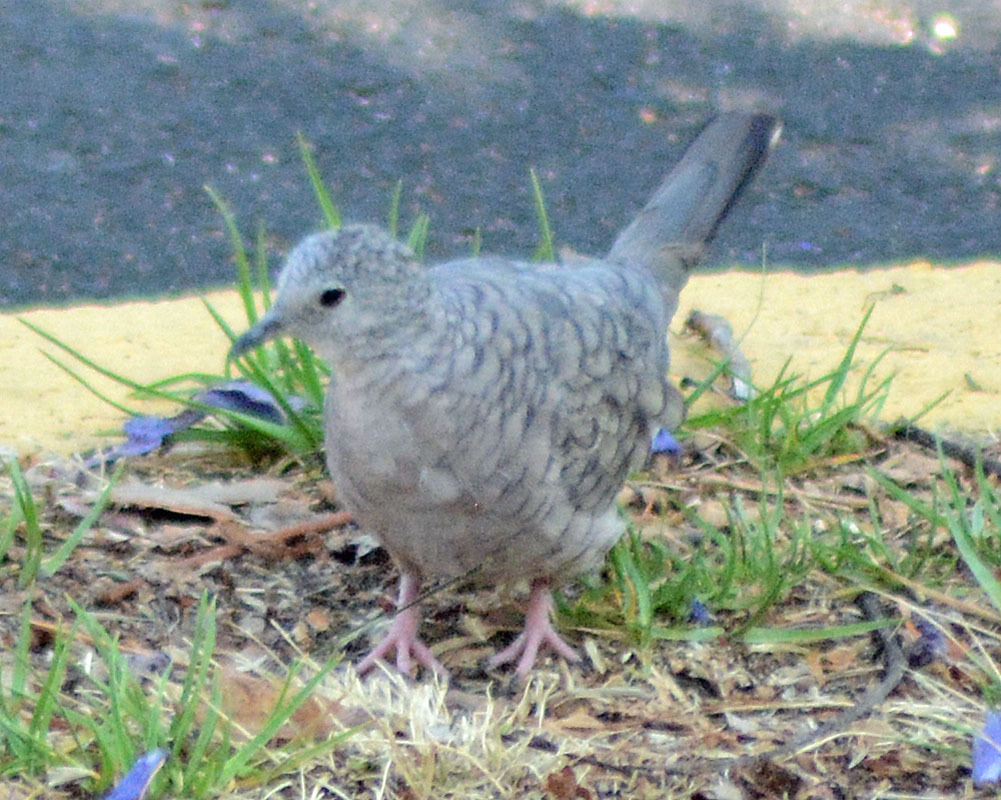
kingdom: Animalia
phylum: Chordata
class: Aves
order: Columbiformes
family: Columbidae
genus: Columbina
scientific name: Columbina inca
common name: Inca dove
